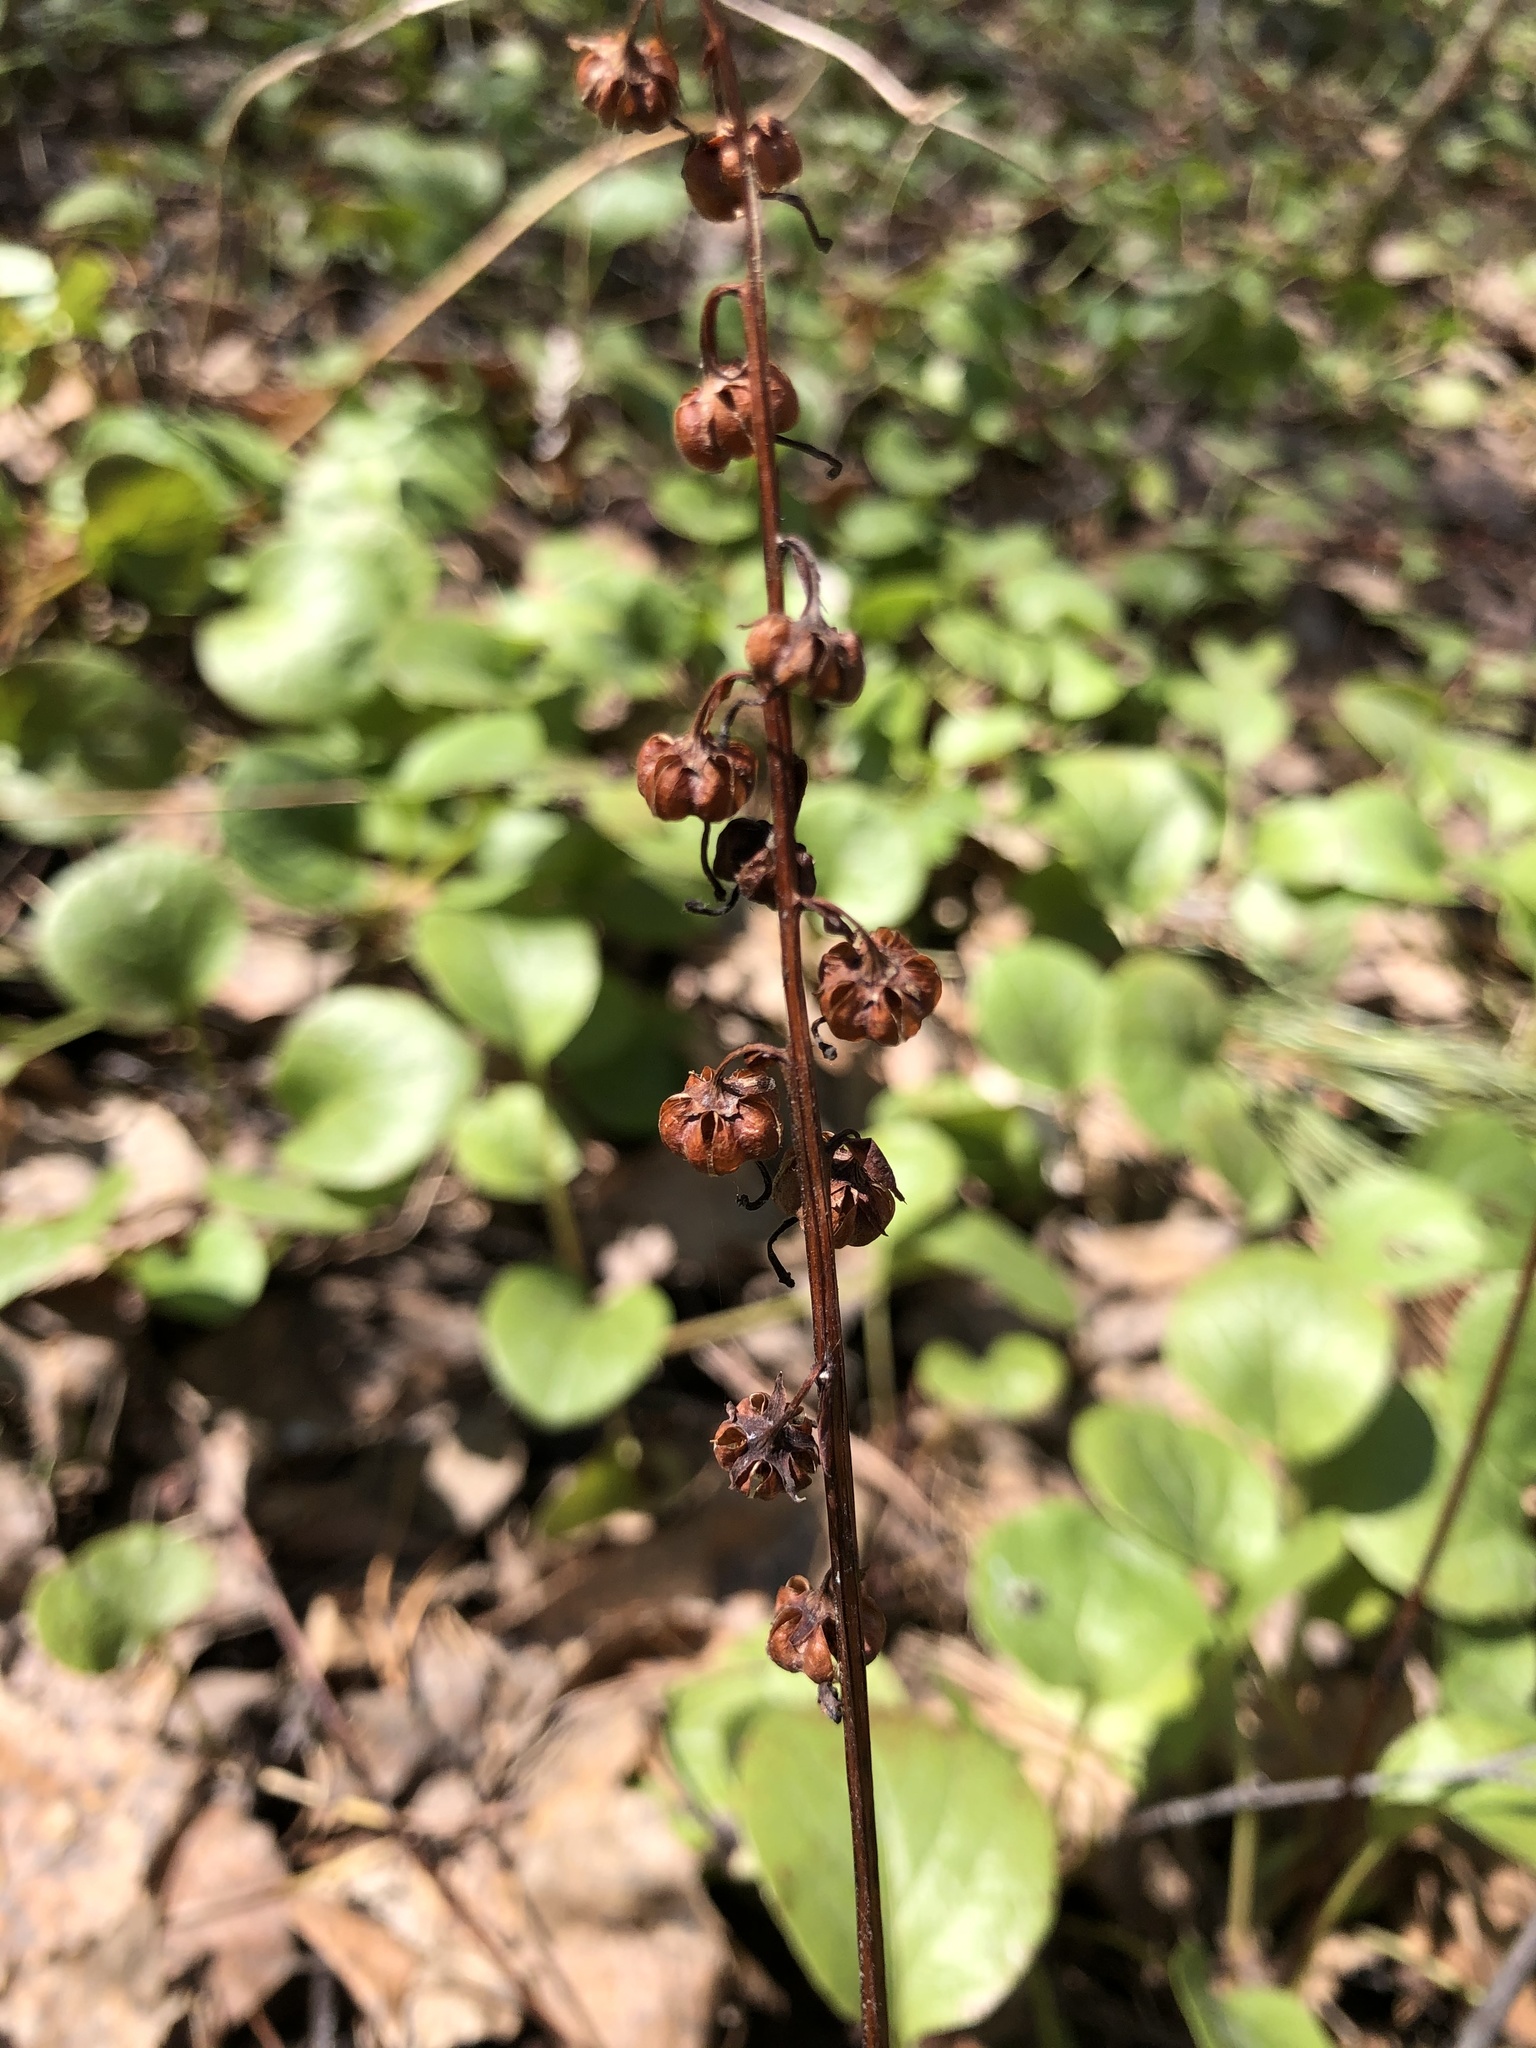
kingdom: Plantae
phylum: Tracheophyta
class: Magnoliopsida
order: Ericales
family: Ericaceae
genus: Pyrola
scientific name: Pyrola rotundifolia
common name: Round-leaved wintergreen
